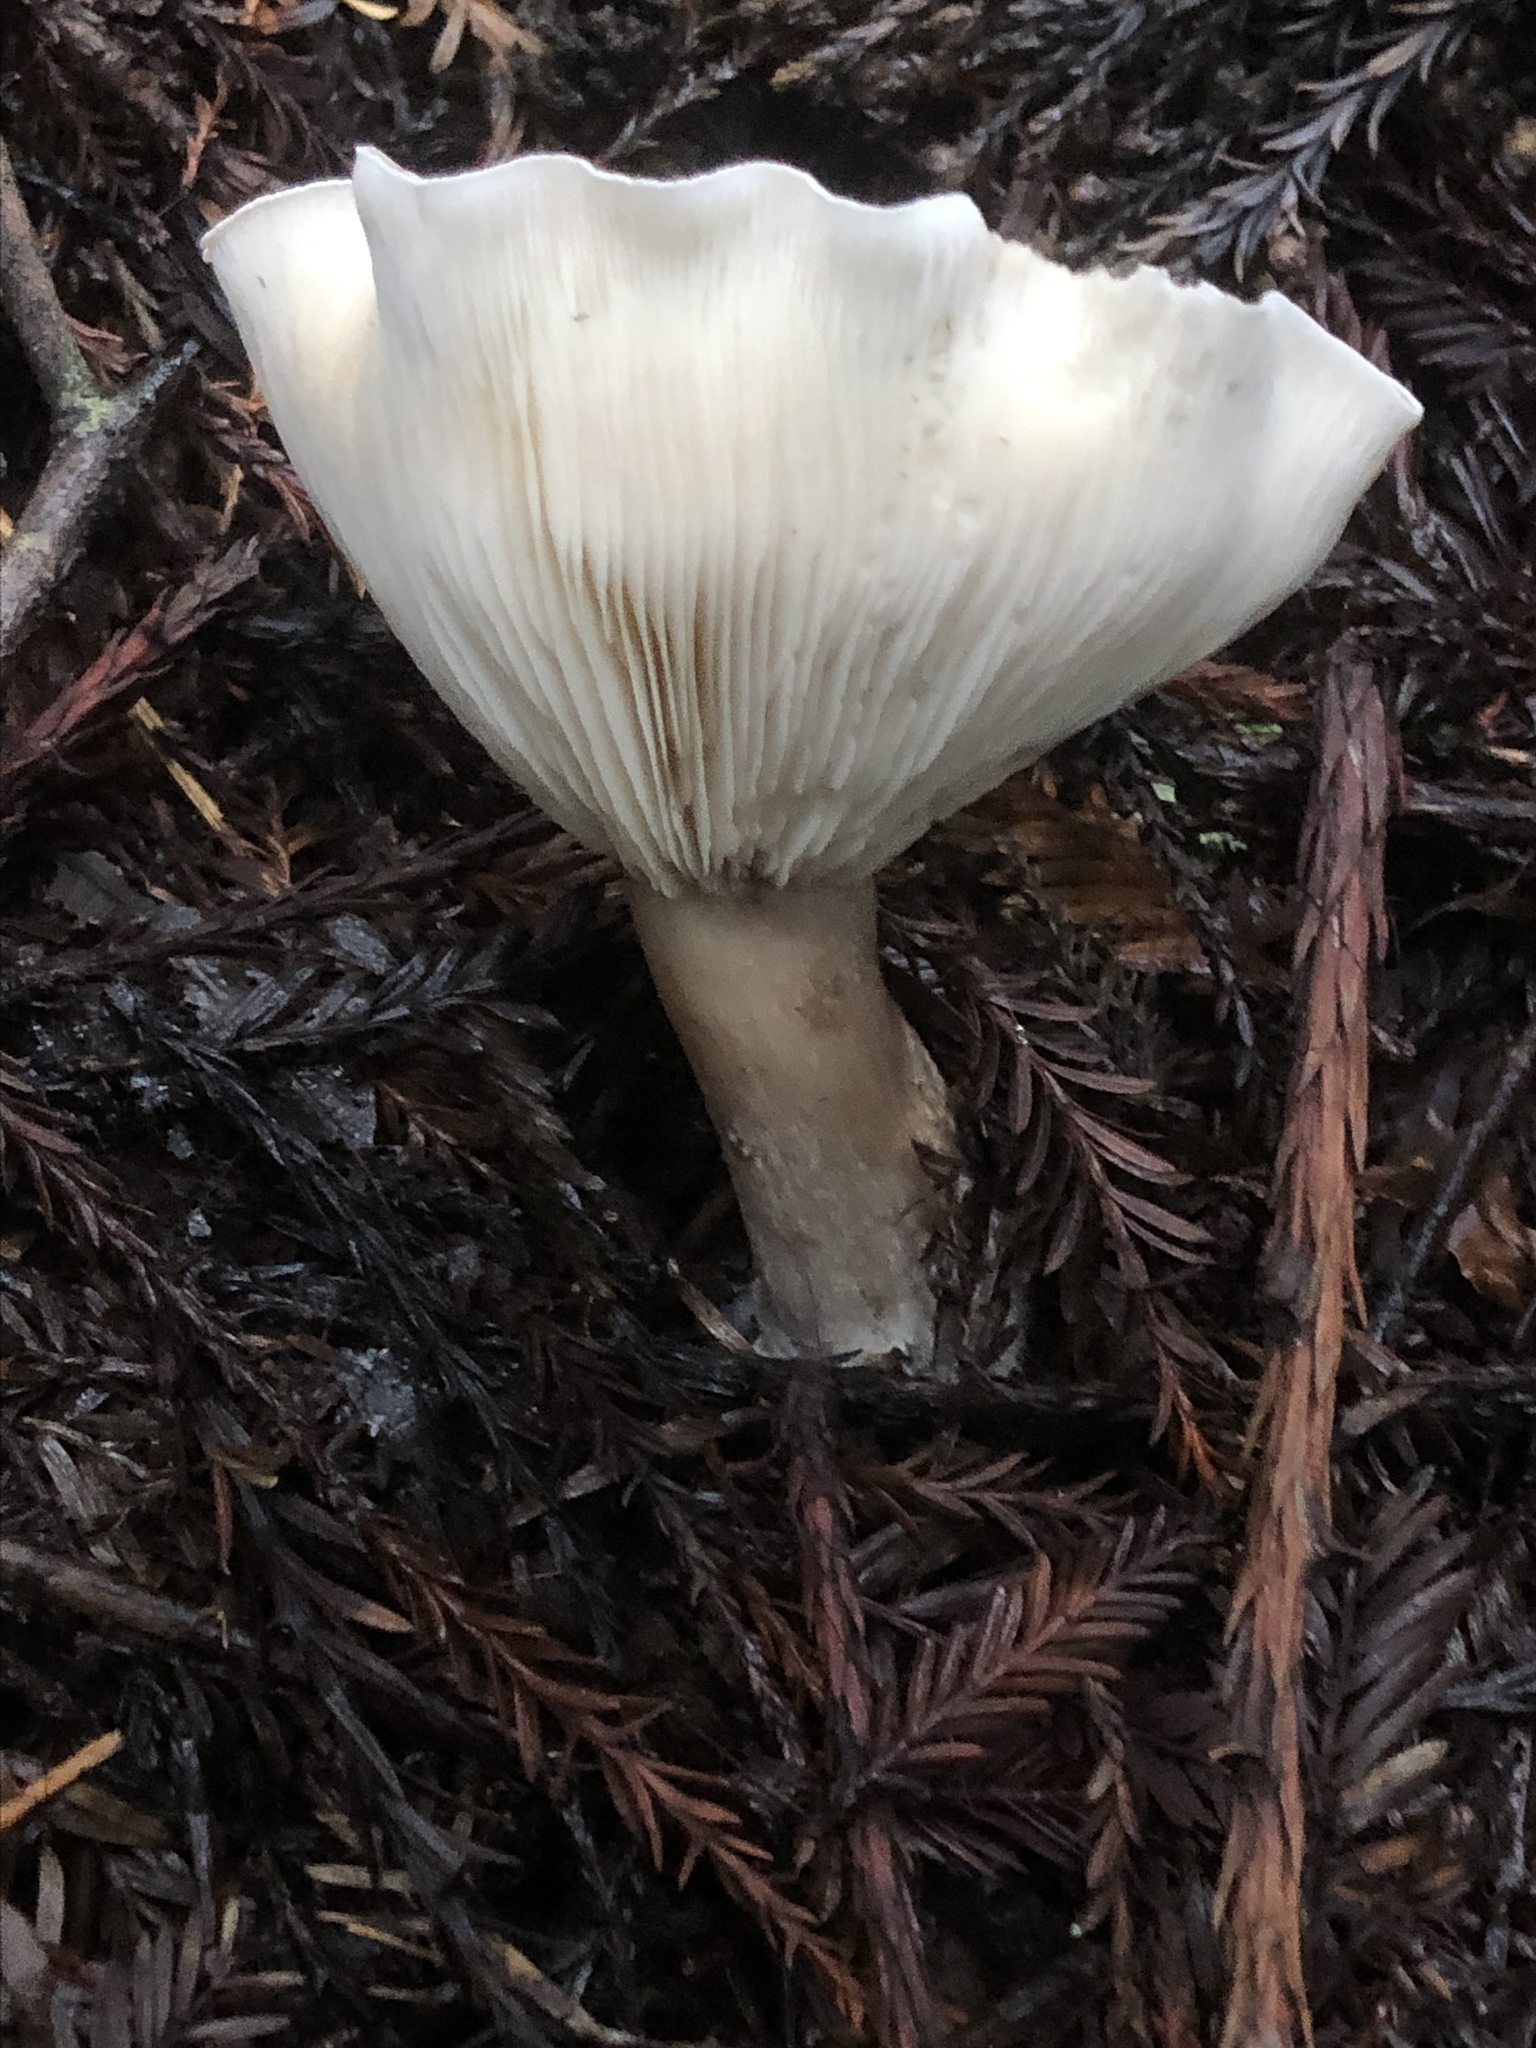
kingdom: Fungi
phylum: Basidiomycota
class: Agaricomycetes
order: Agaricales
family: Tricholomataceae
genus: Clitocybe
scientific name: Clitocybe nebularis
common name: Clouded agaric
